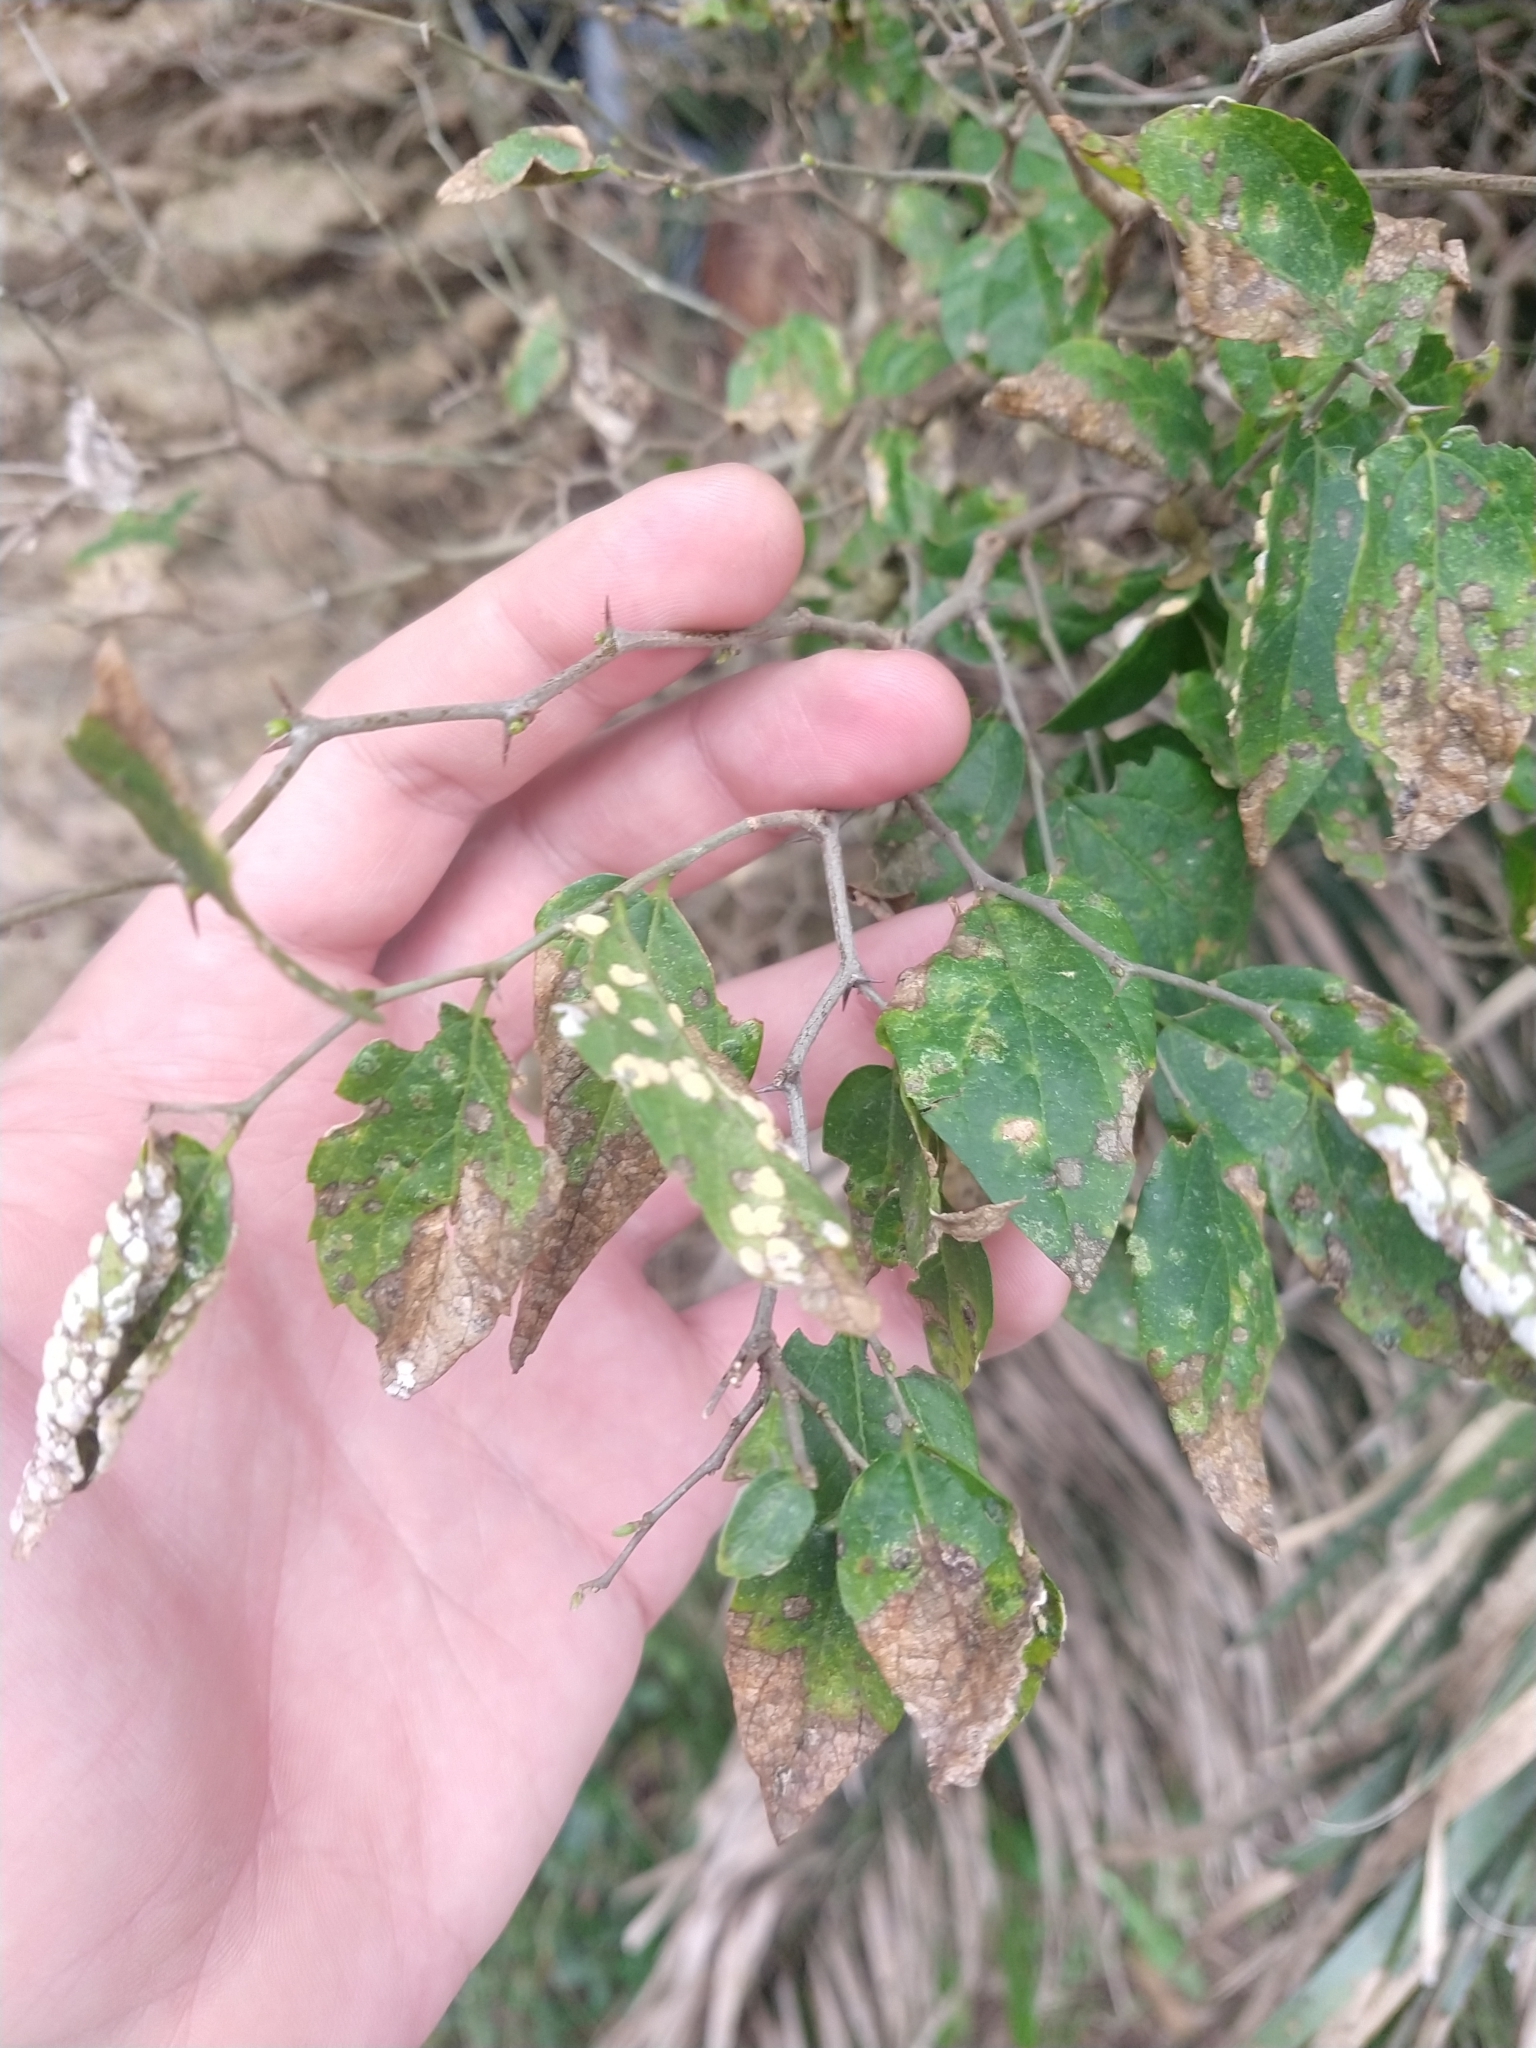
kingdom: Plantae
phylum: Tracheophyta
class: Magnoliopsida
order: Rosales
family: Cannabaceae
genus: Celtis
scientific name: Celtis tala
